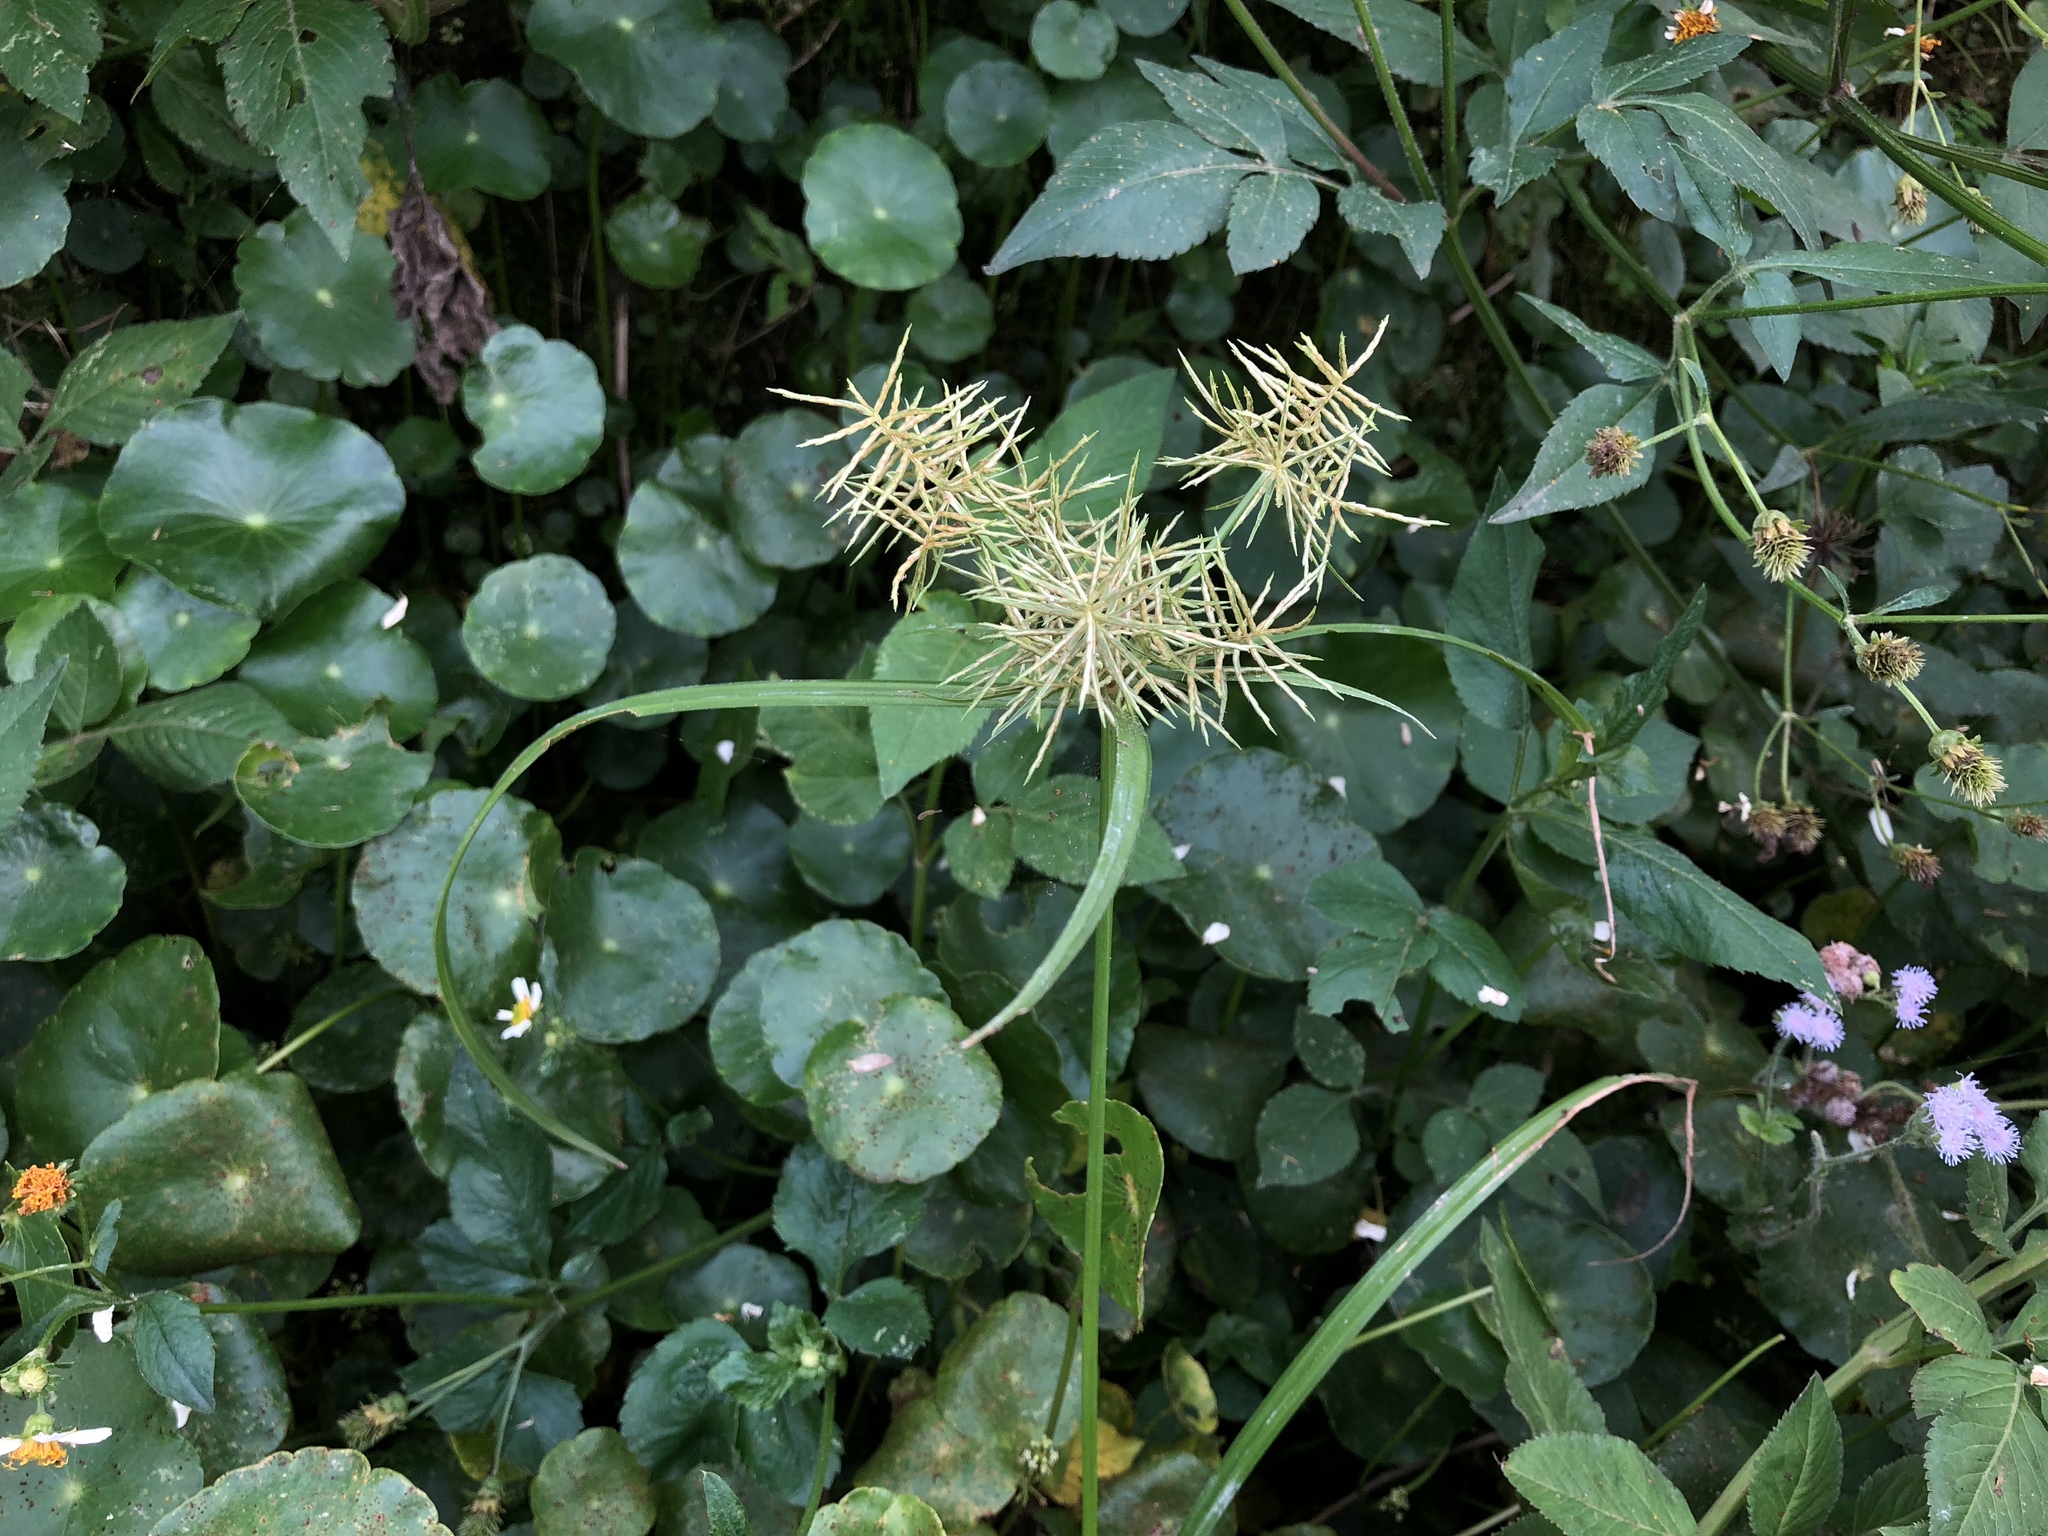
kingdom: Plantae
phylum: Tracheophyta
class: Liliopsida
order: Poales
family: Cyperaceae
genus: Cyperus
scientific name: Cyperus odoratus
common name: Fragrant flatsedge
